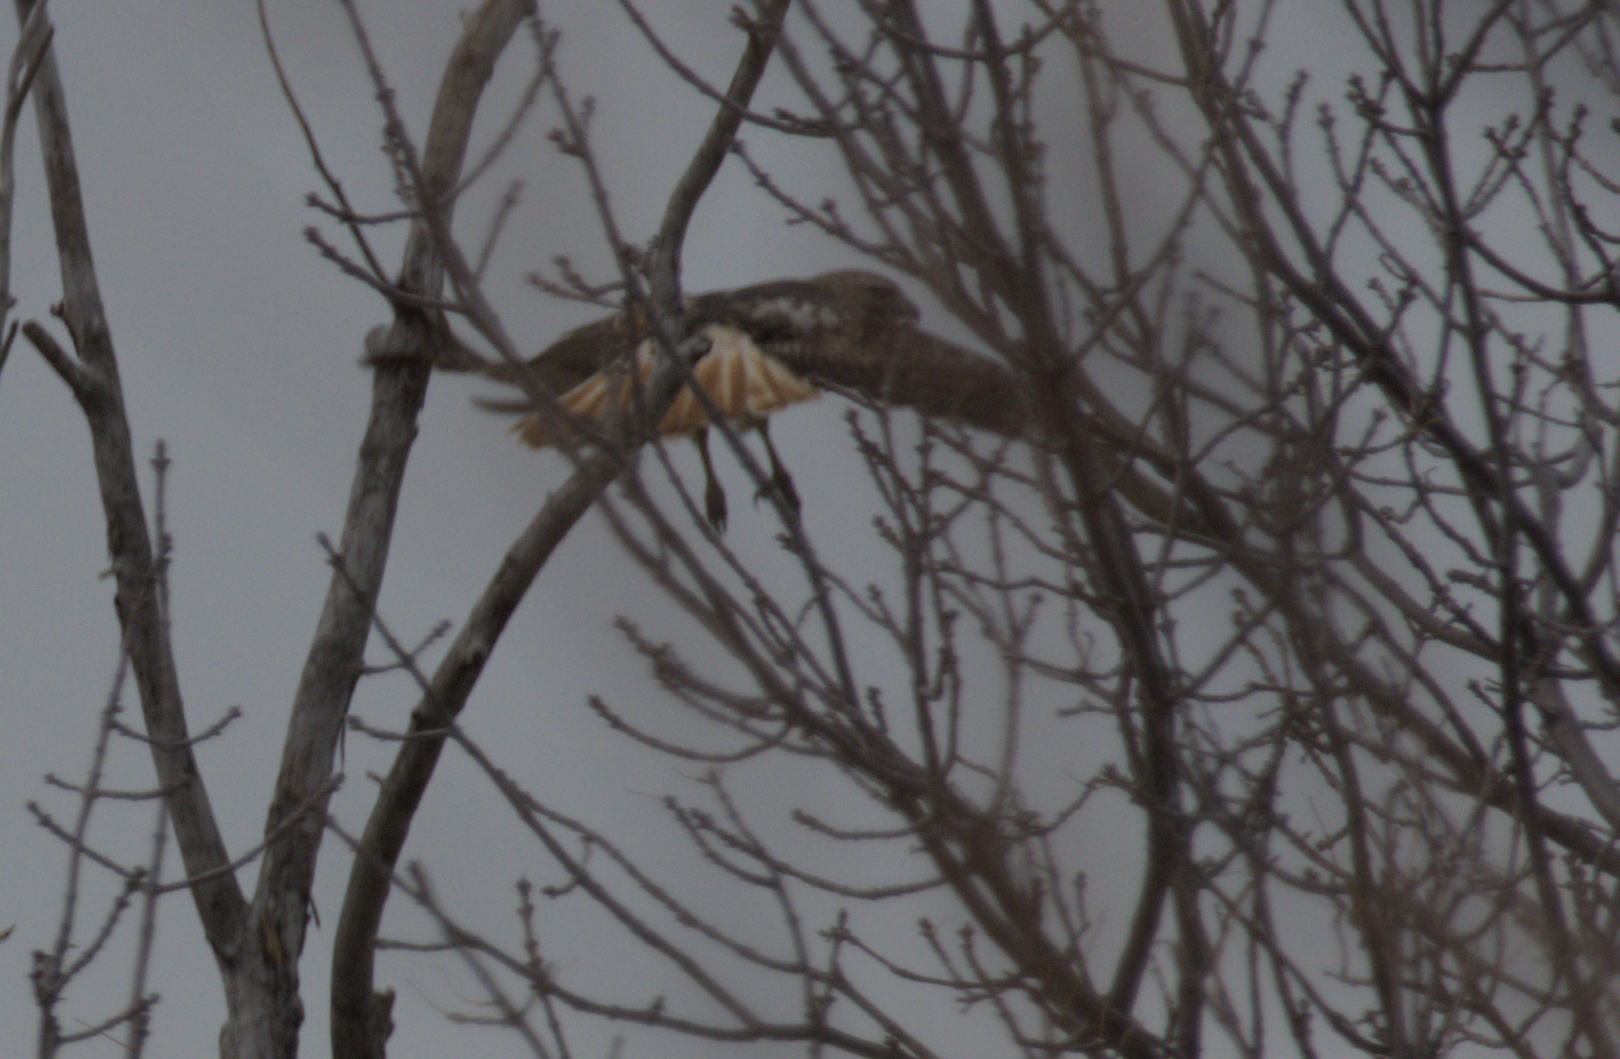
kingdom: Animalia
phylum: Chordata
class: Aves
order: Accipitriformes
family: Accipitridae
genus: Buteo
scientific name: Buteo jamaicensis
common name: Red-tailed hawk
